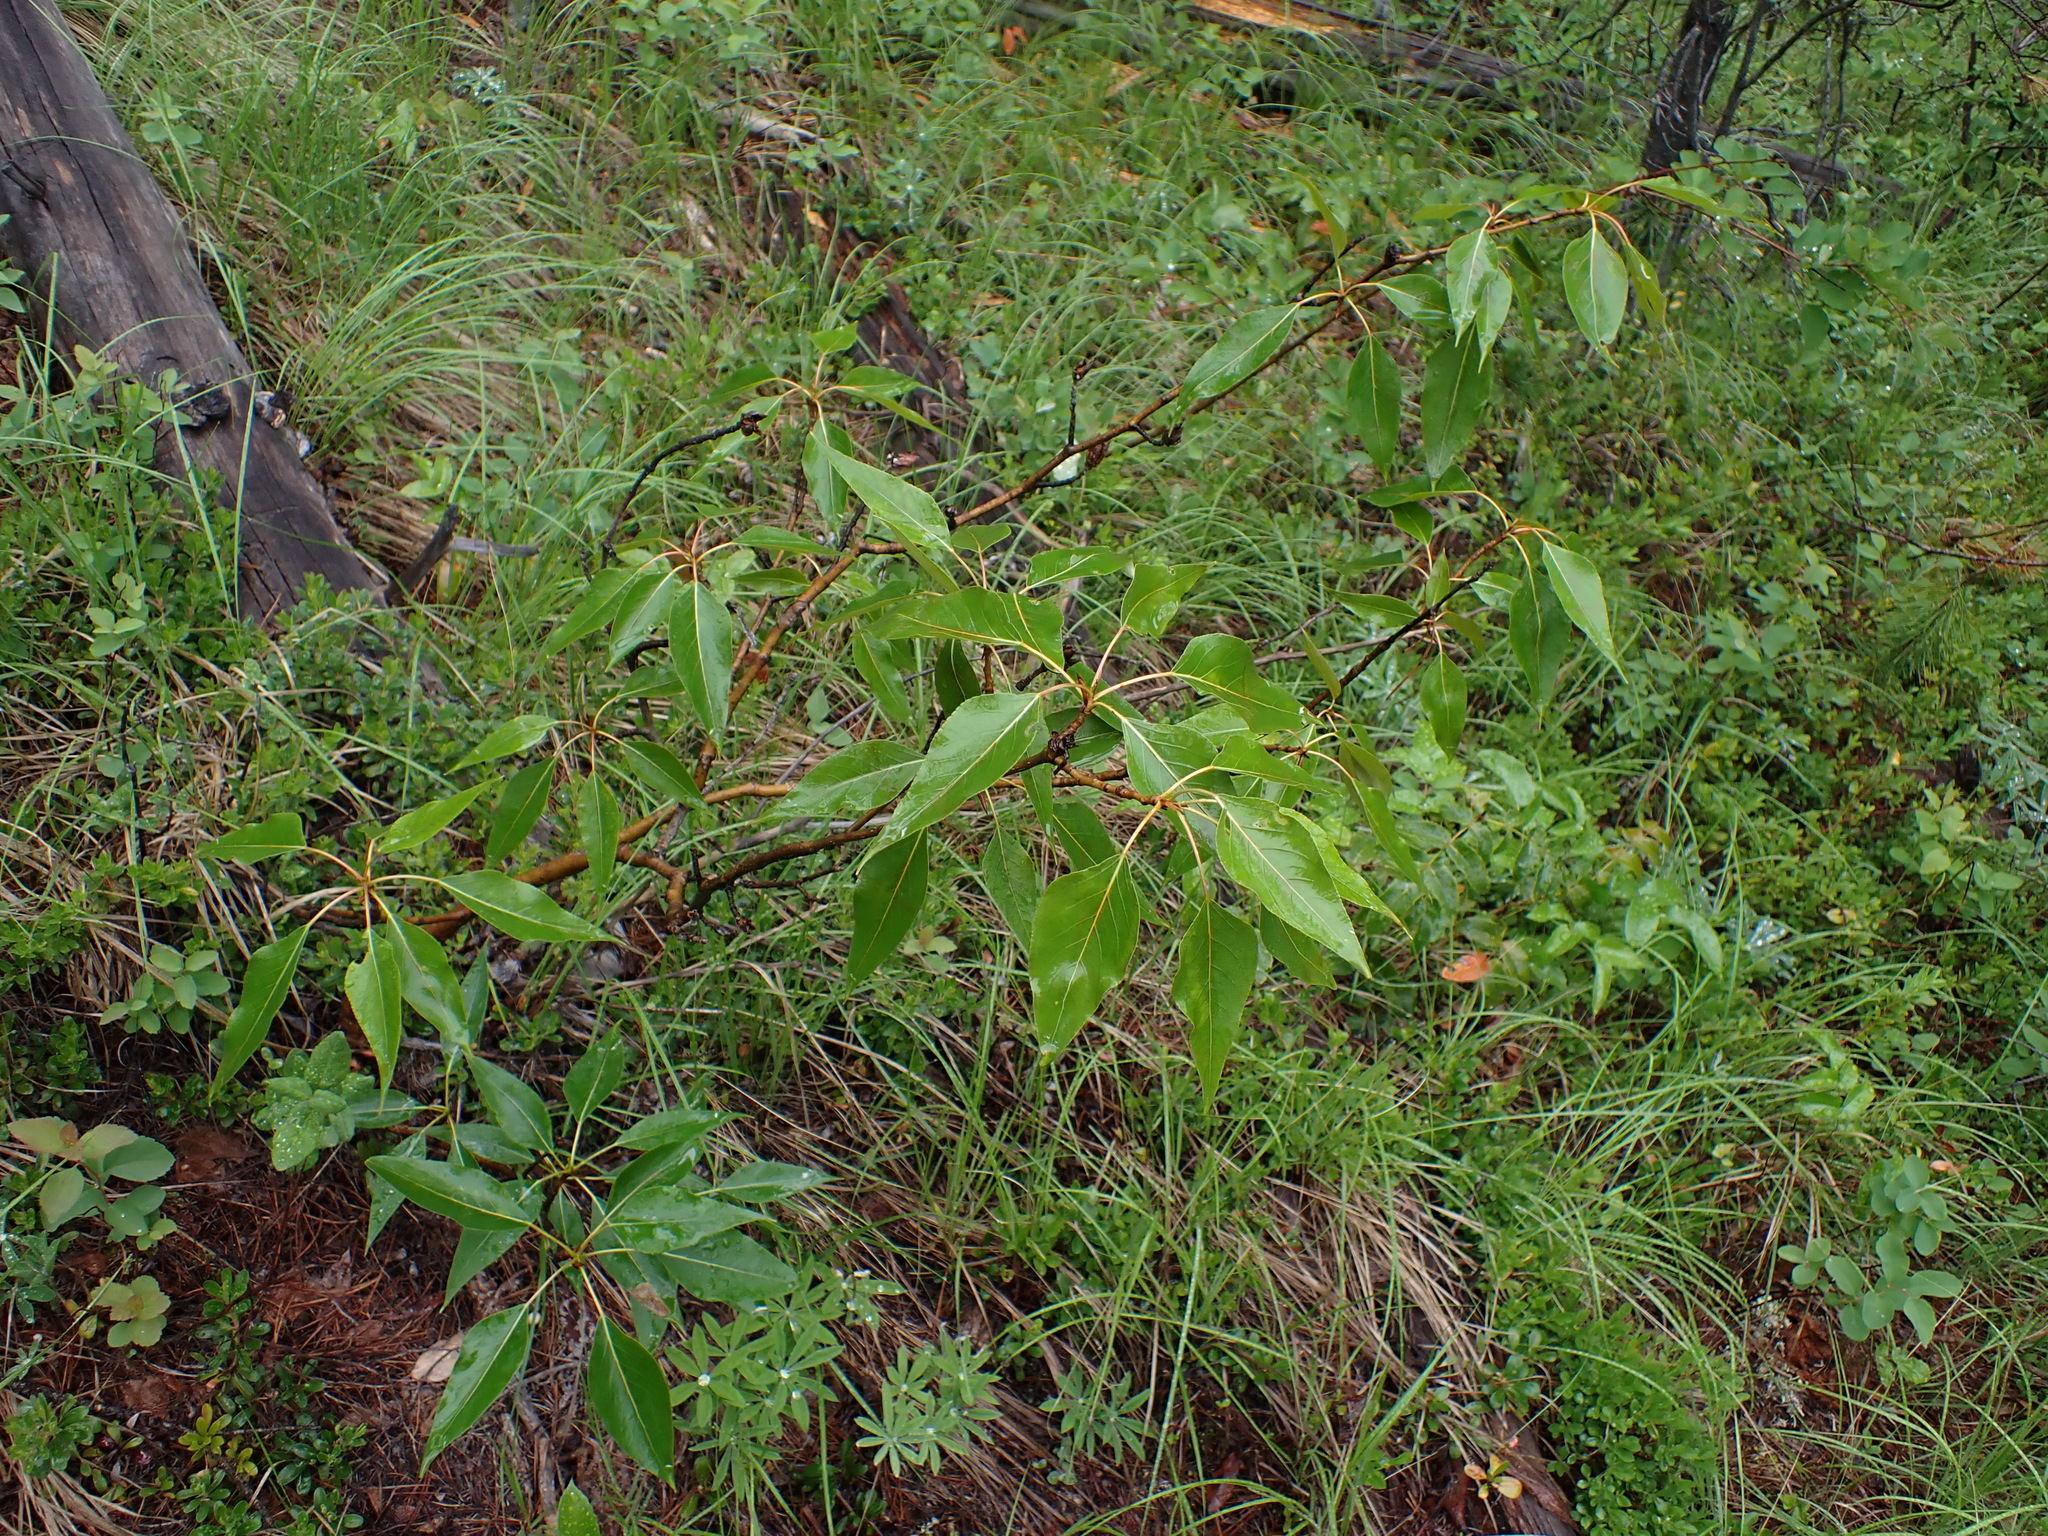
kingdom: Plantae
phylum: Tracheophyta
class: Magnoliopsida
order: Malpighiales
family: Salicaceae
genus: Populus
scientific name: Populus trichocarpa
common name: Black cottonwood
